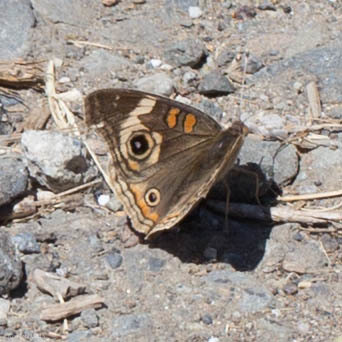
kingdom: Animalia
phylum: Arthropoda
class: Insecta
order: Lepidoptera
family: Nymphalidae
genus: Junonia
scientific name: Junonia grisea
